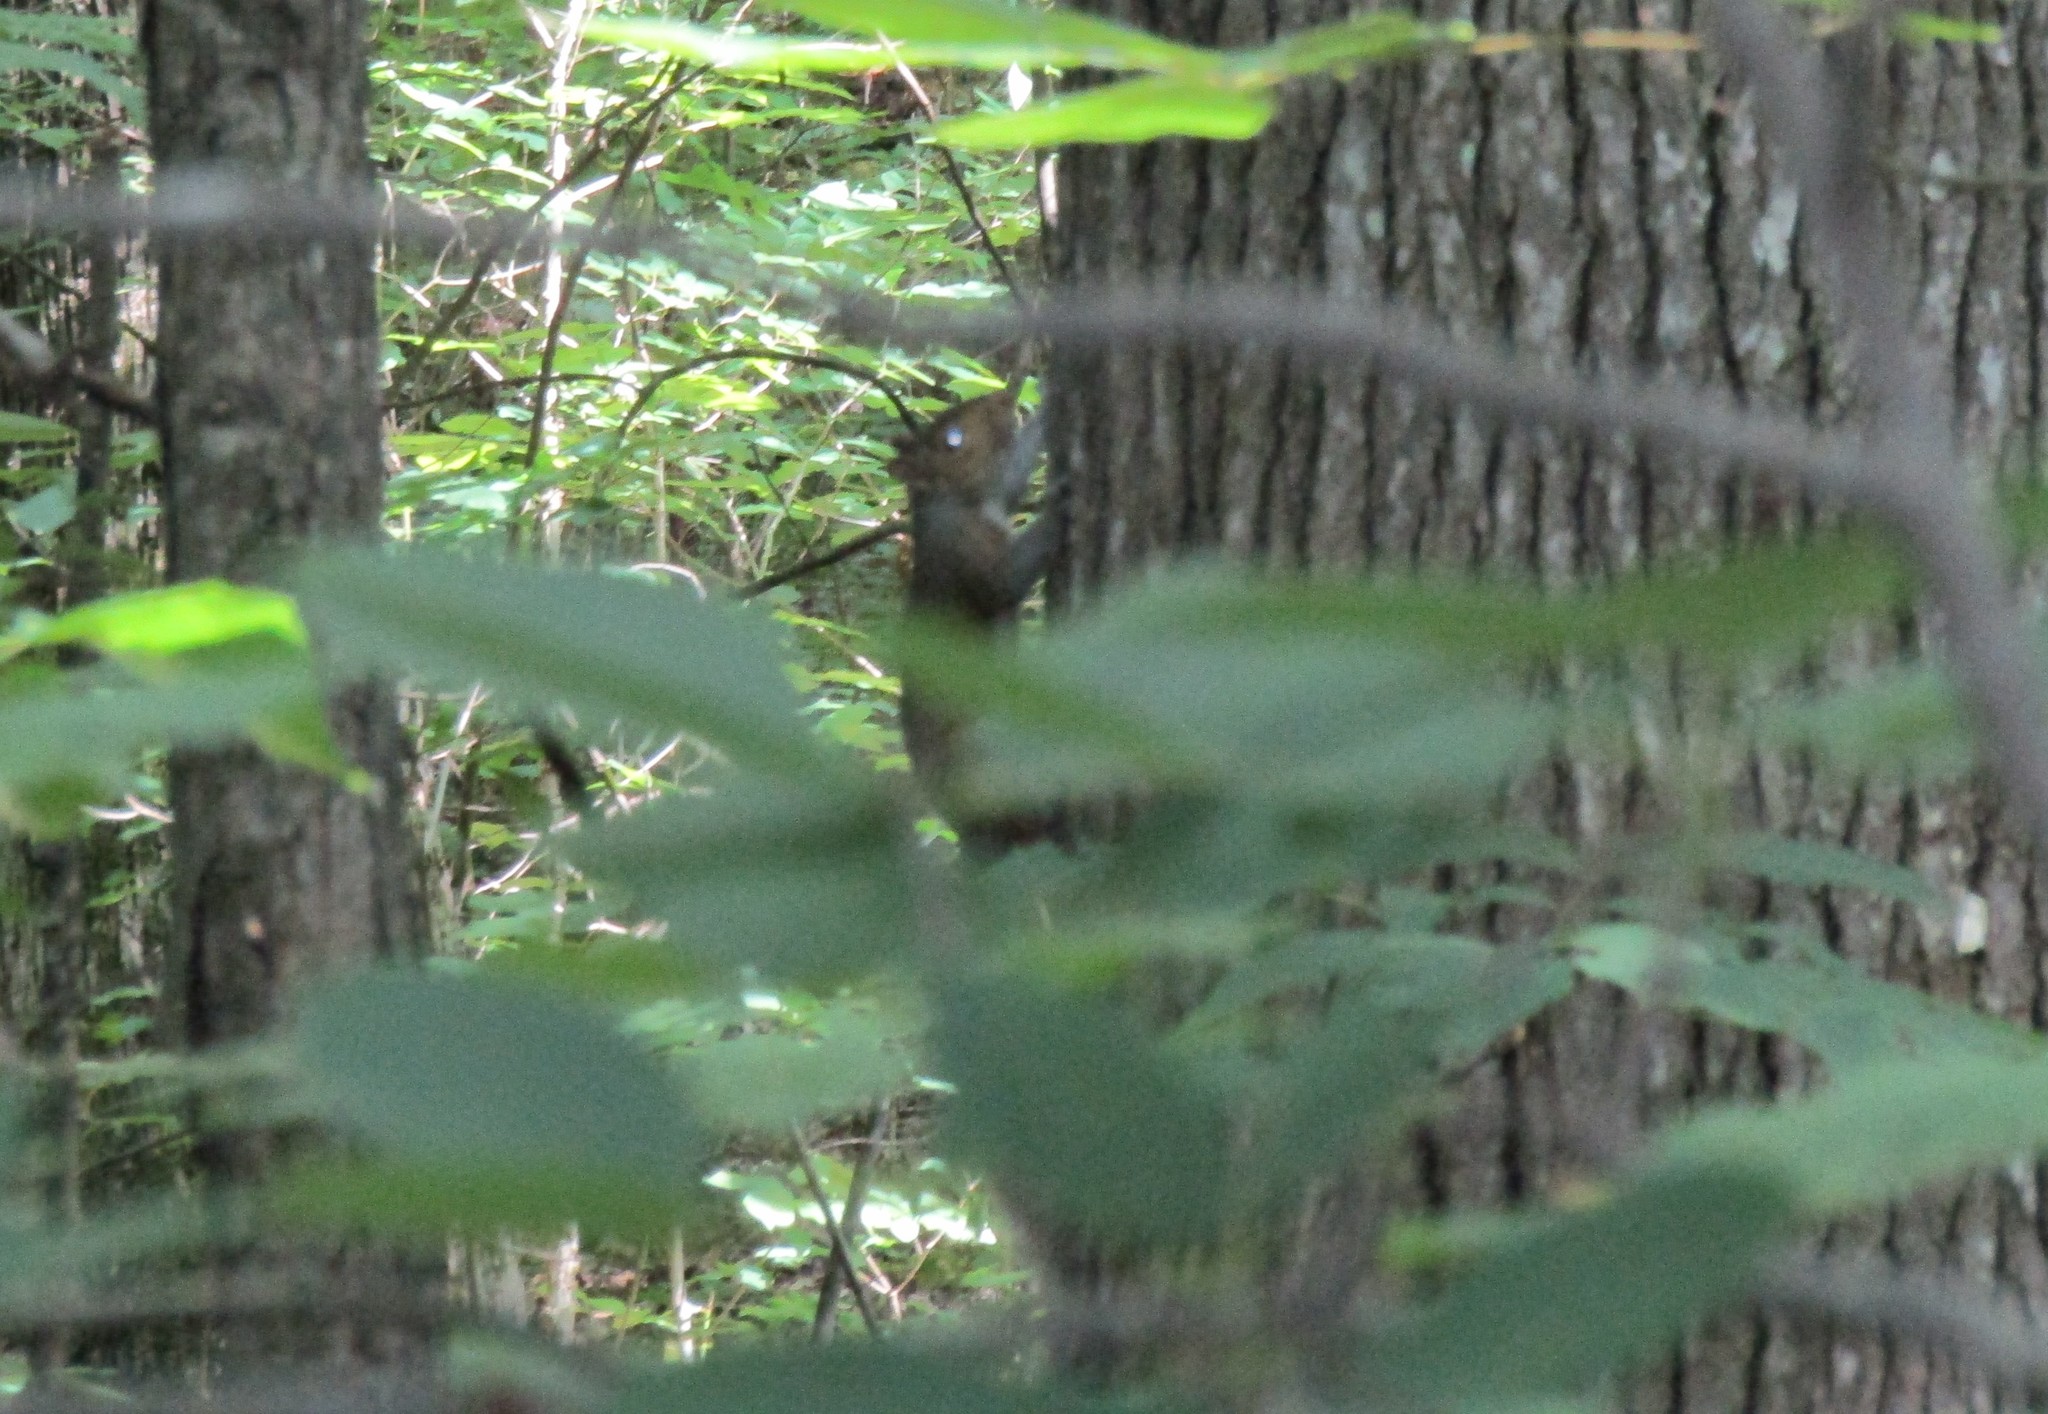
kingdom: Animalia
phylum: Chordata
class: Mammalia
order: Rodentia
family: Sciuridae
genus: Sciurus
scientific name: Sciurus carolinensis
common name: Eastern gray squirrel
